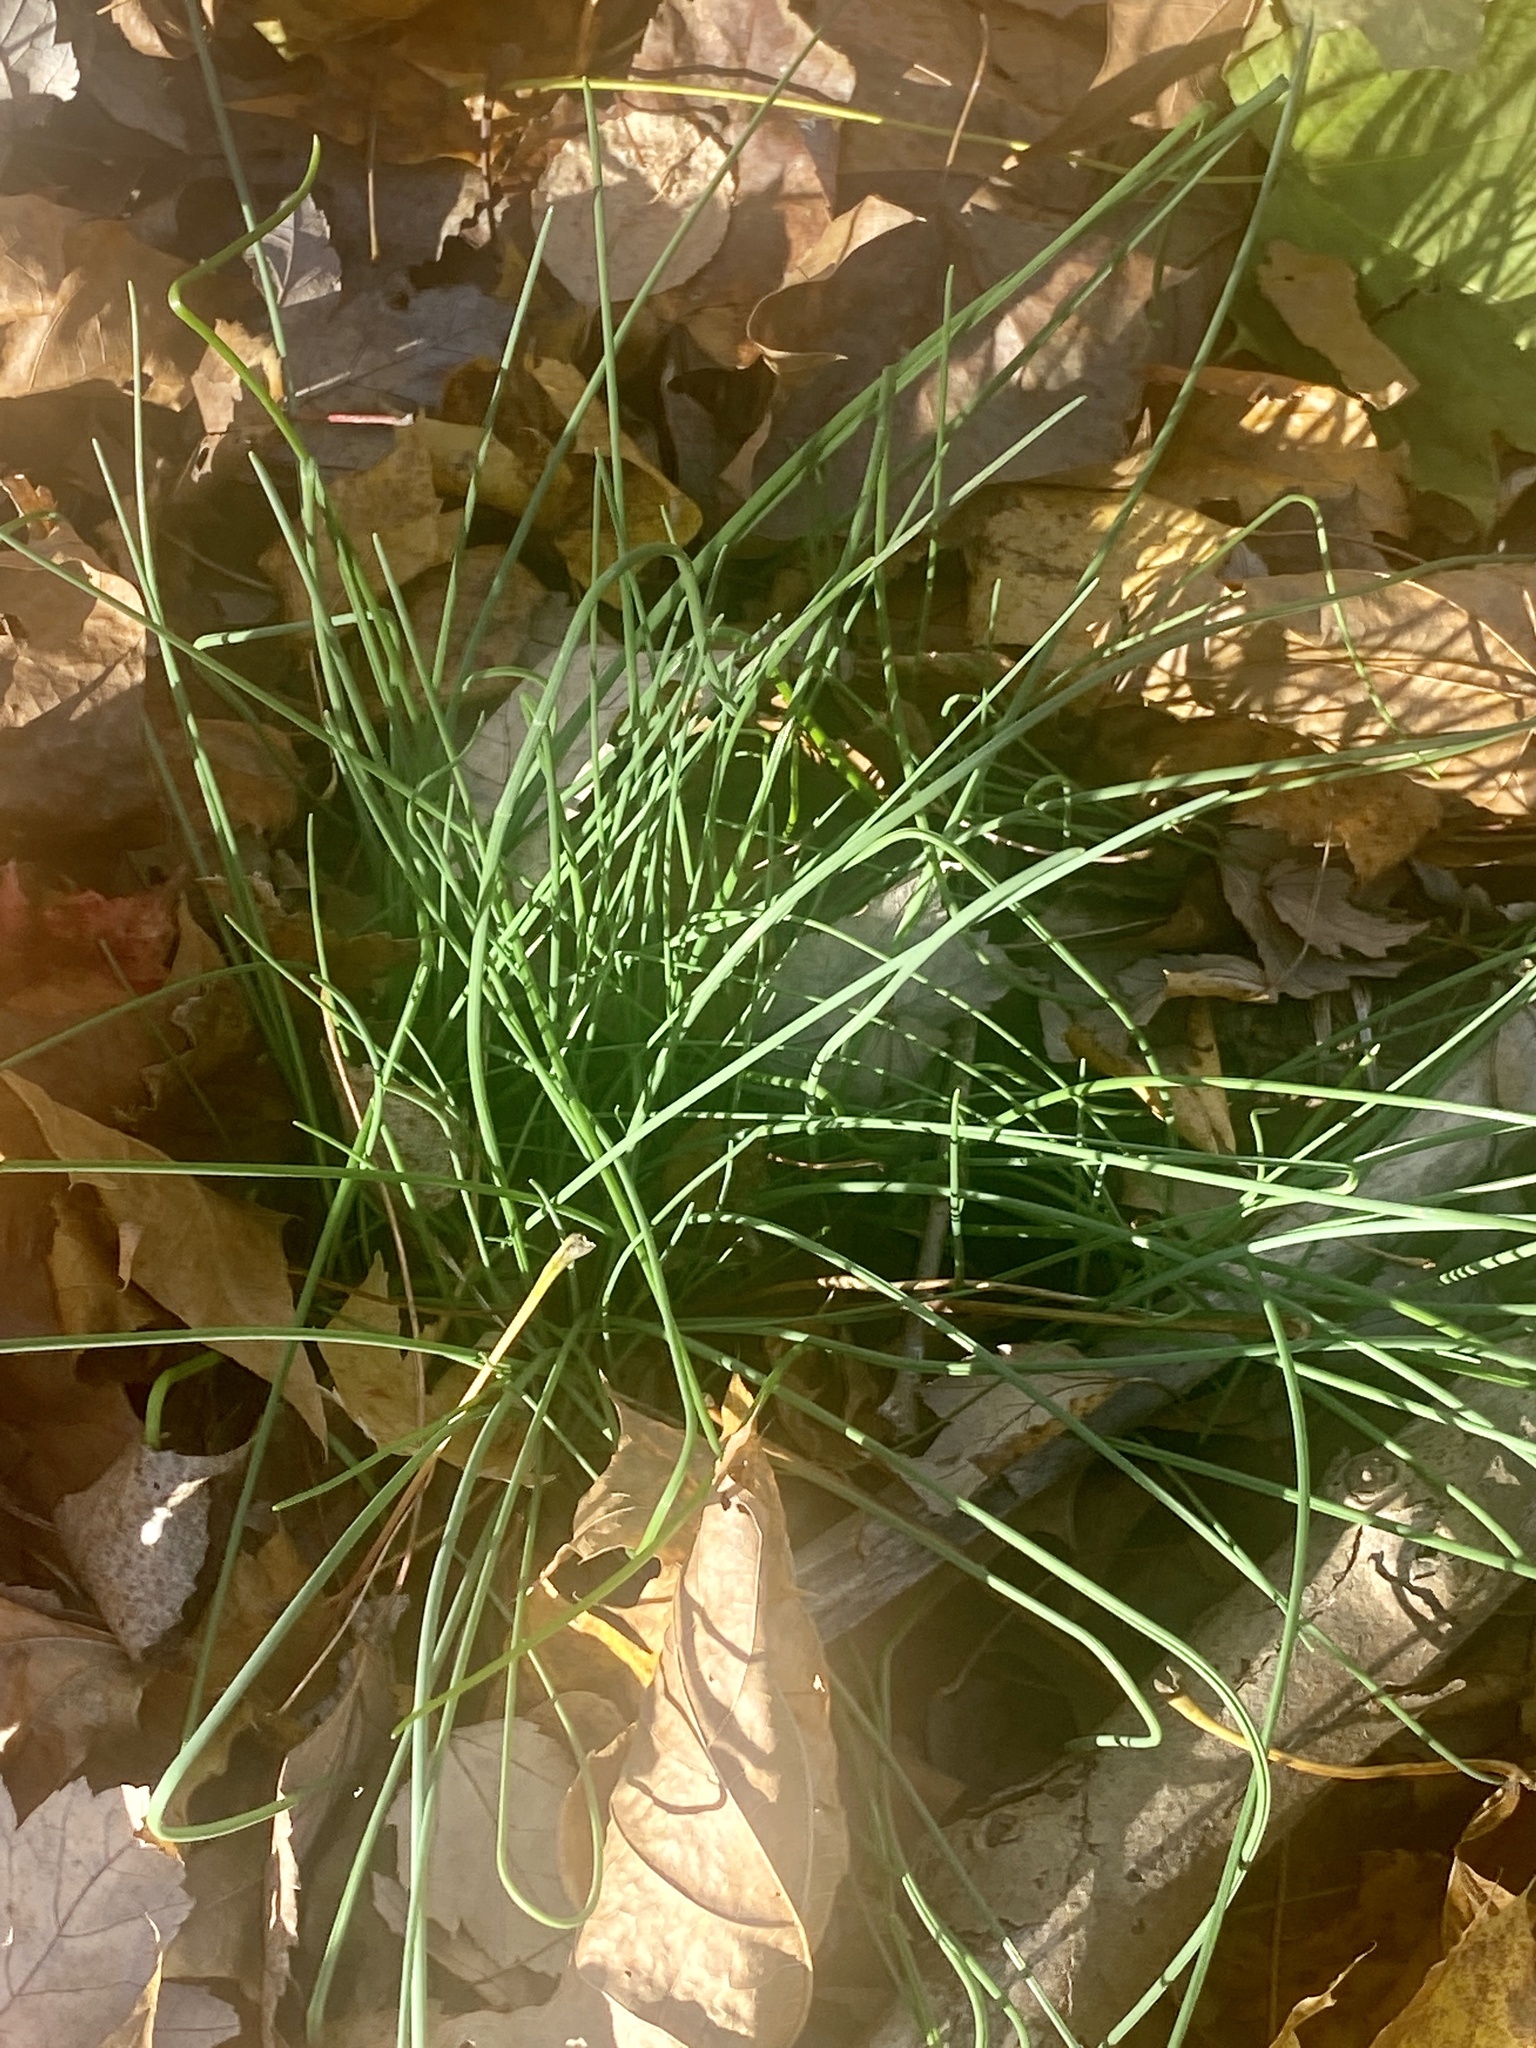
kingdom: Plantae
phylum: Tracheophyta
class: Liliopsida
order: Asparagales
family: Amaryllidaceae
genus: Allium
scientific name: Allium vineale
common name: Crow garlic
